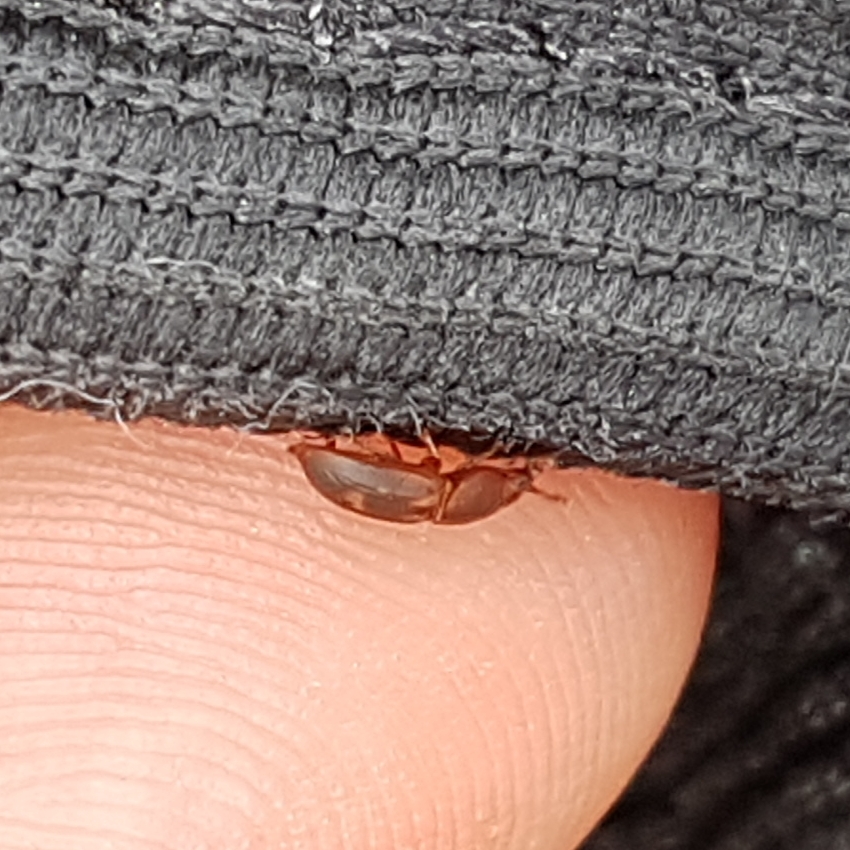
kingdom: Animalia
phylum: Arthropoda
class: Insecta
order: Coleoptera
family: Nitidulidae
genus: Amphotis
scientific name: Amphotis marginata
